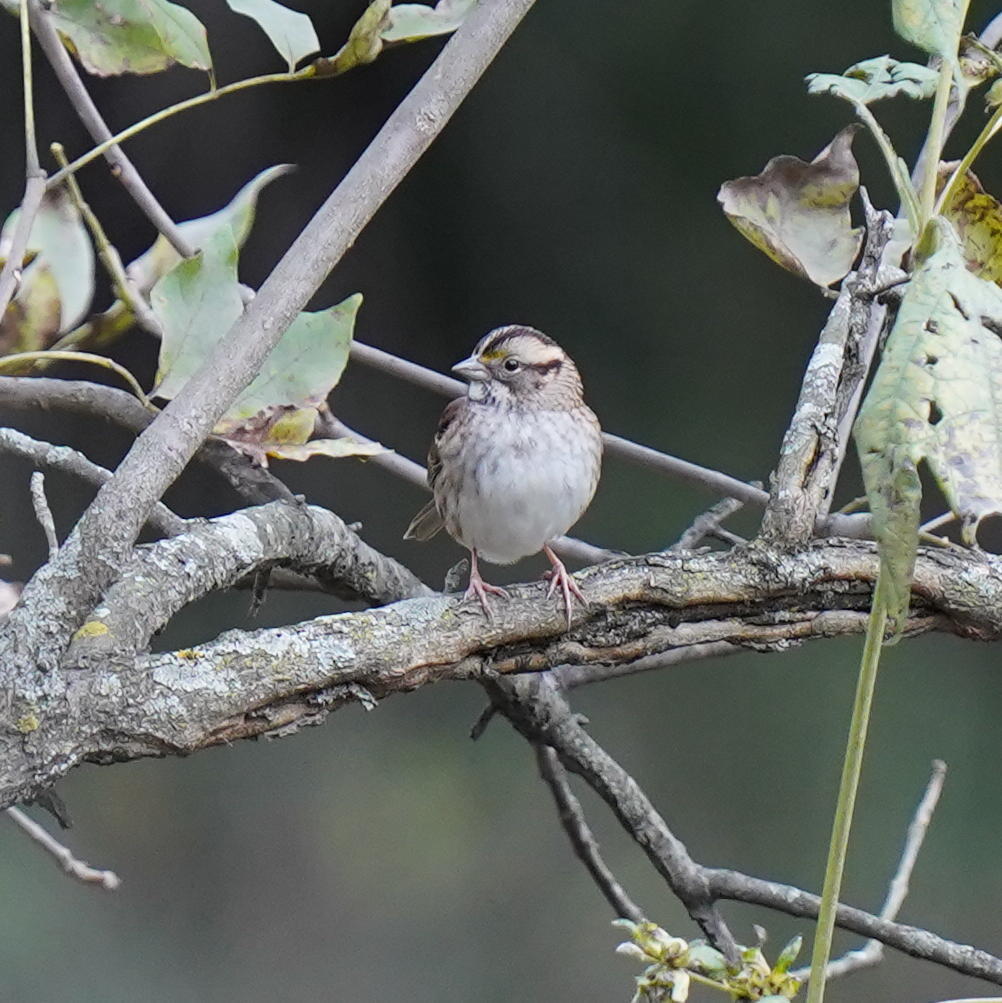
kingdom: Animalia
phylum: Chordata
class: Aves
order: Passeriformes
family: Passerellidae
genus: Zonotrichia
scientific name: Zonotrichia albicollis
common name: White-throated sparrow
